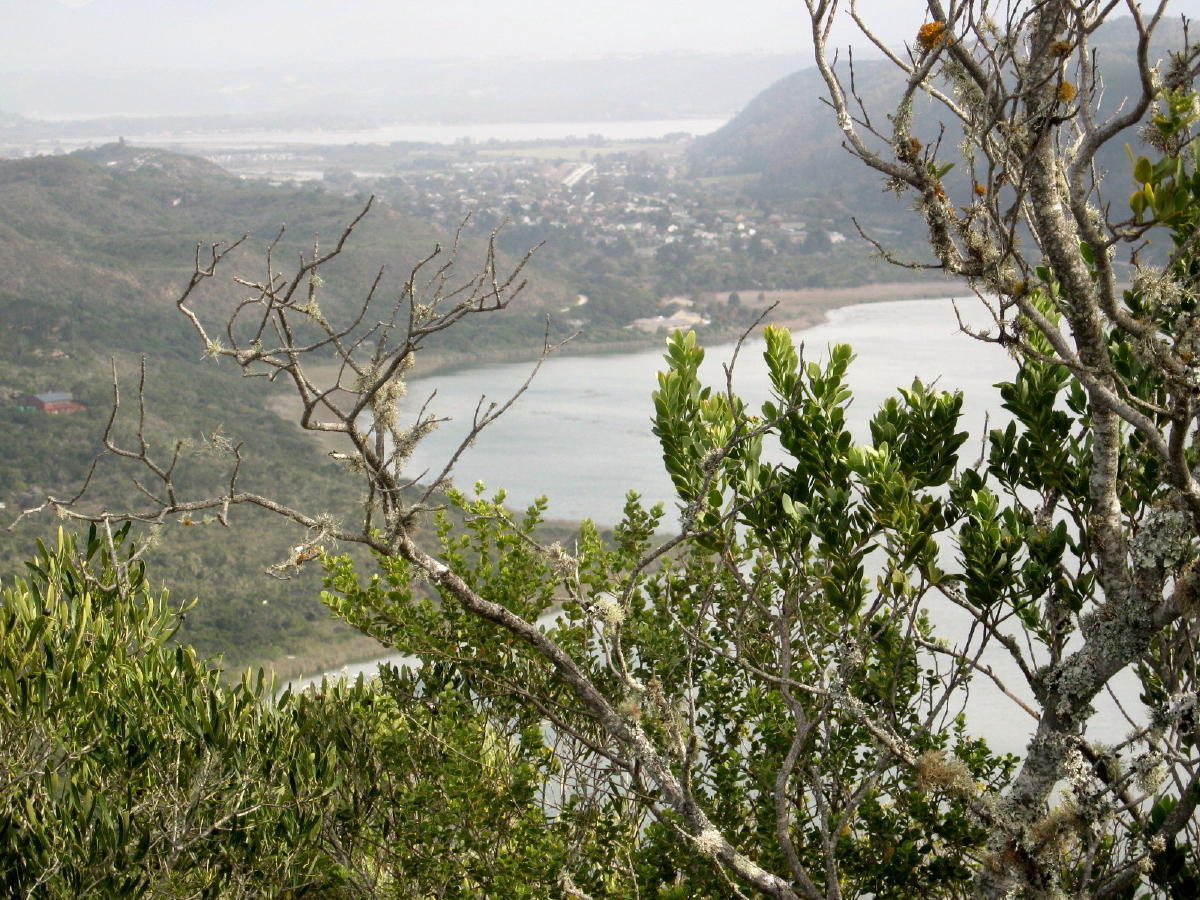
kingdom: Plantae
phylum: Tracheophyta
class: Magnoliopsida
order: Santalales
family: Santalaceae
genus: Osyris
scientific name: Osyris compressa
